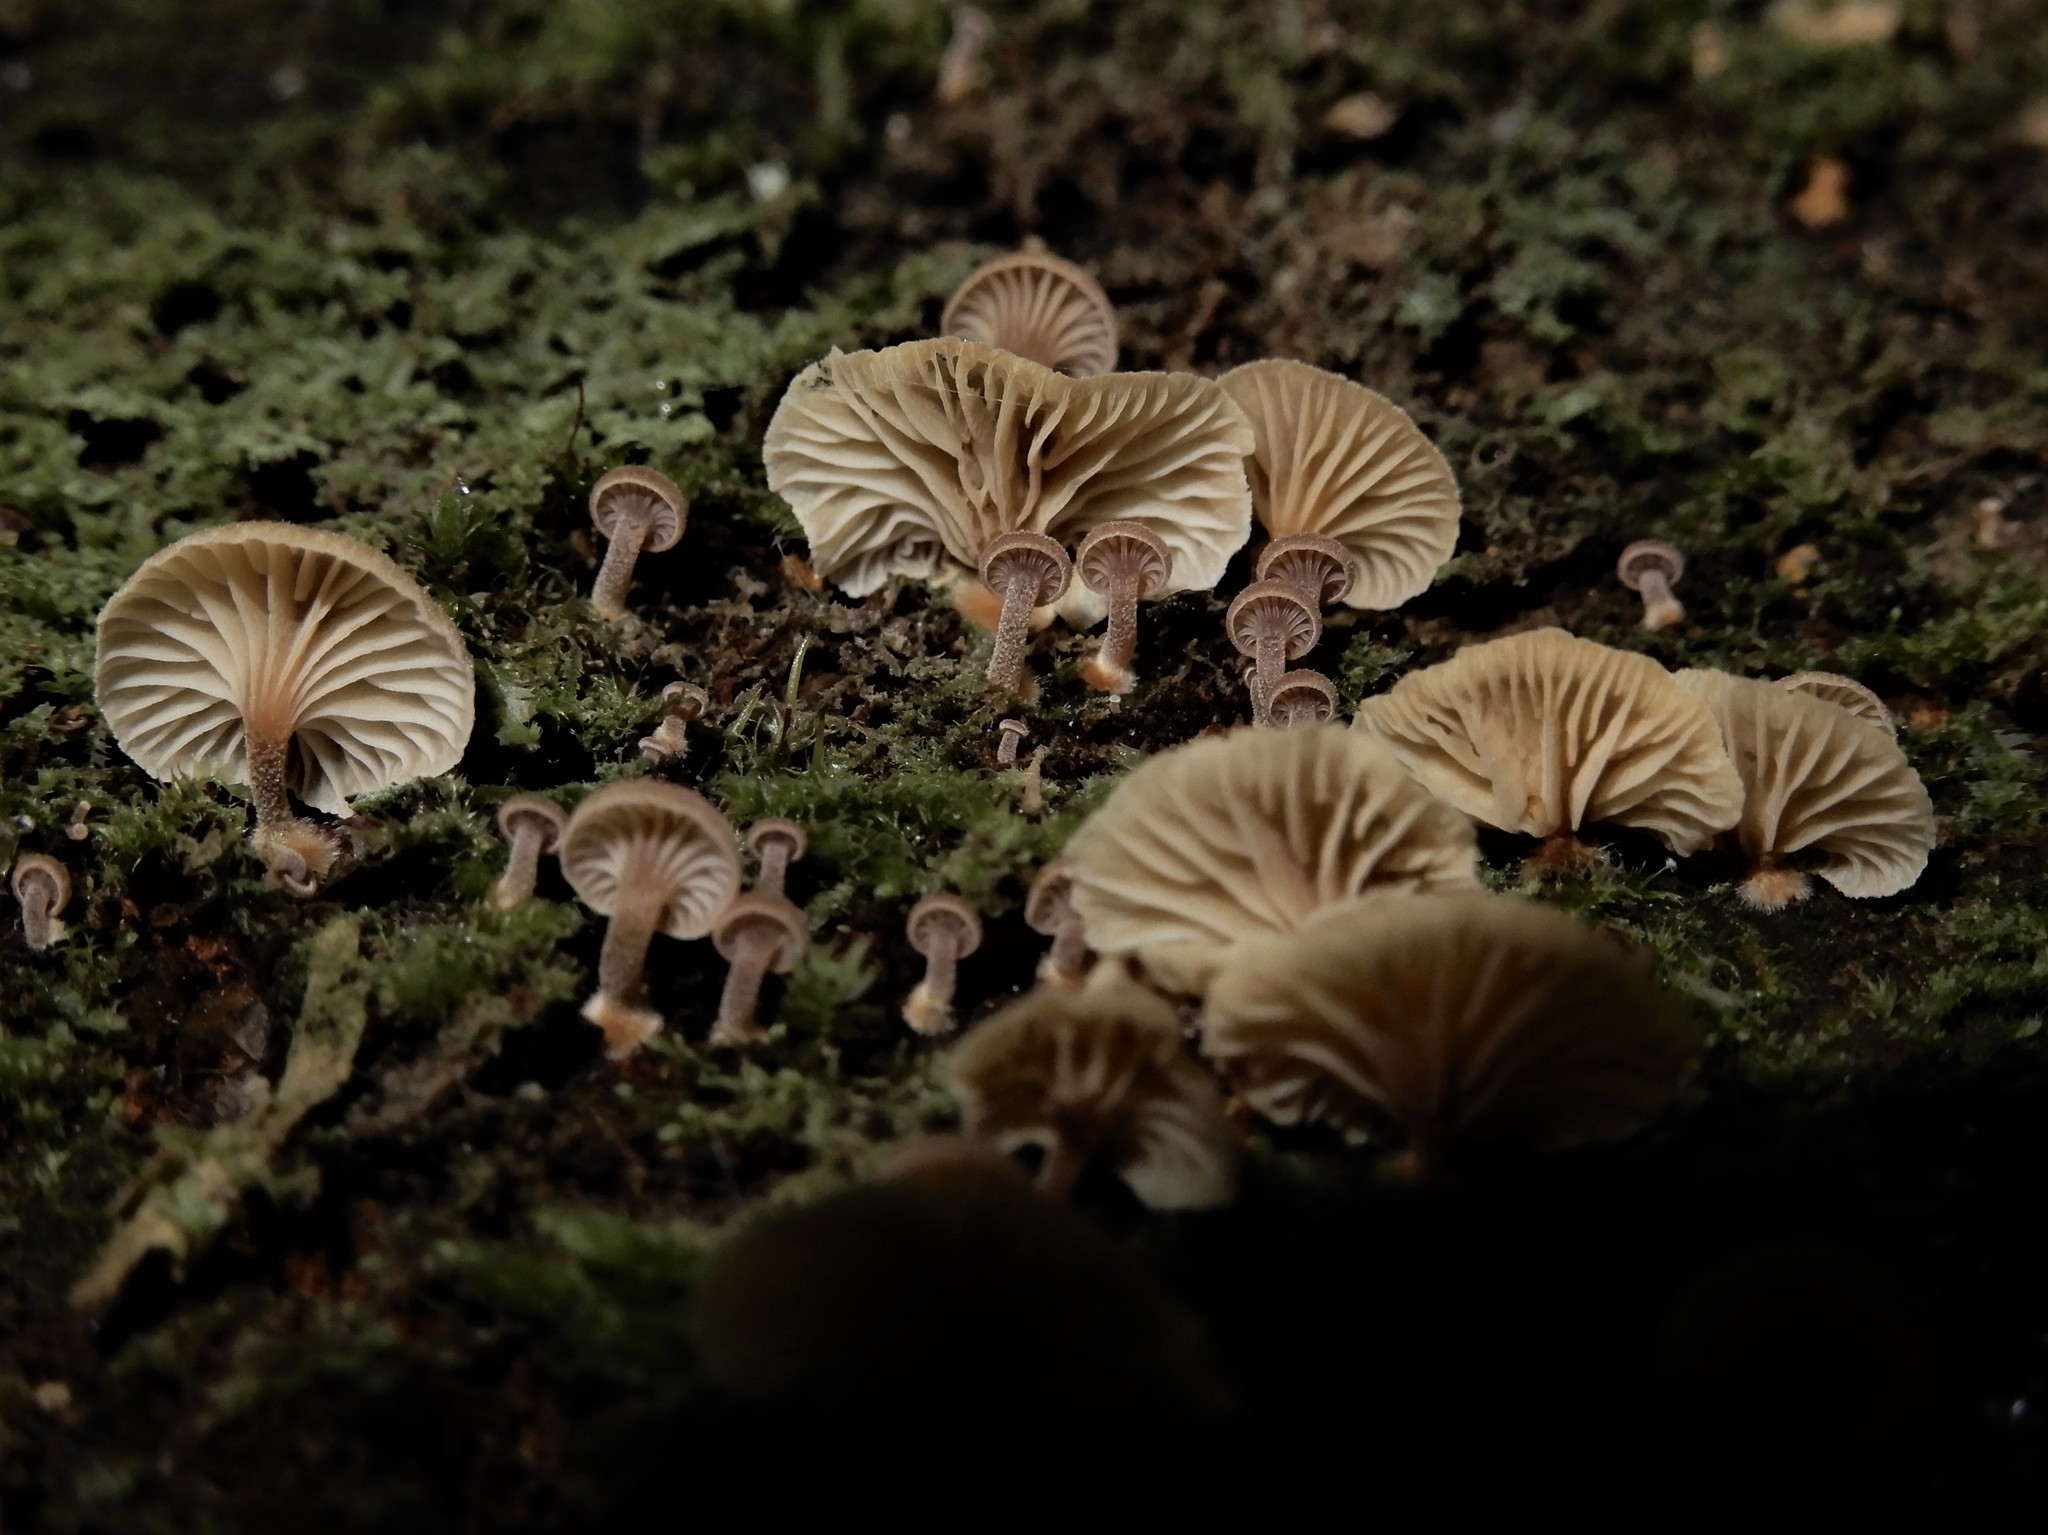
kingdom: Fungi
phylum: Basidiomycota
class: Agaricomycetes
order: Agaricales
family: Mycenaceae
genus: Xeromphalina
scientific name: Xeromphalina podocarpi
